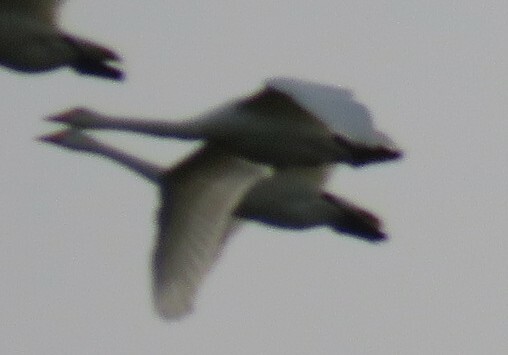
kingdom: Animalia
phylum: Chordata
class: Aves
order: Anseriformes
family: Anatidae
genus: Cygnus
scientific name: Cygnus cygnus
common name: Whooper swan
